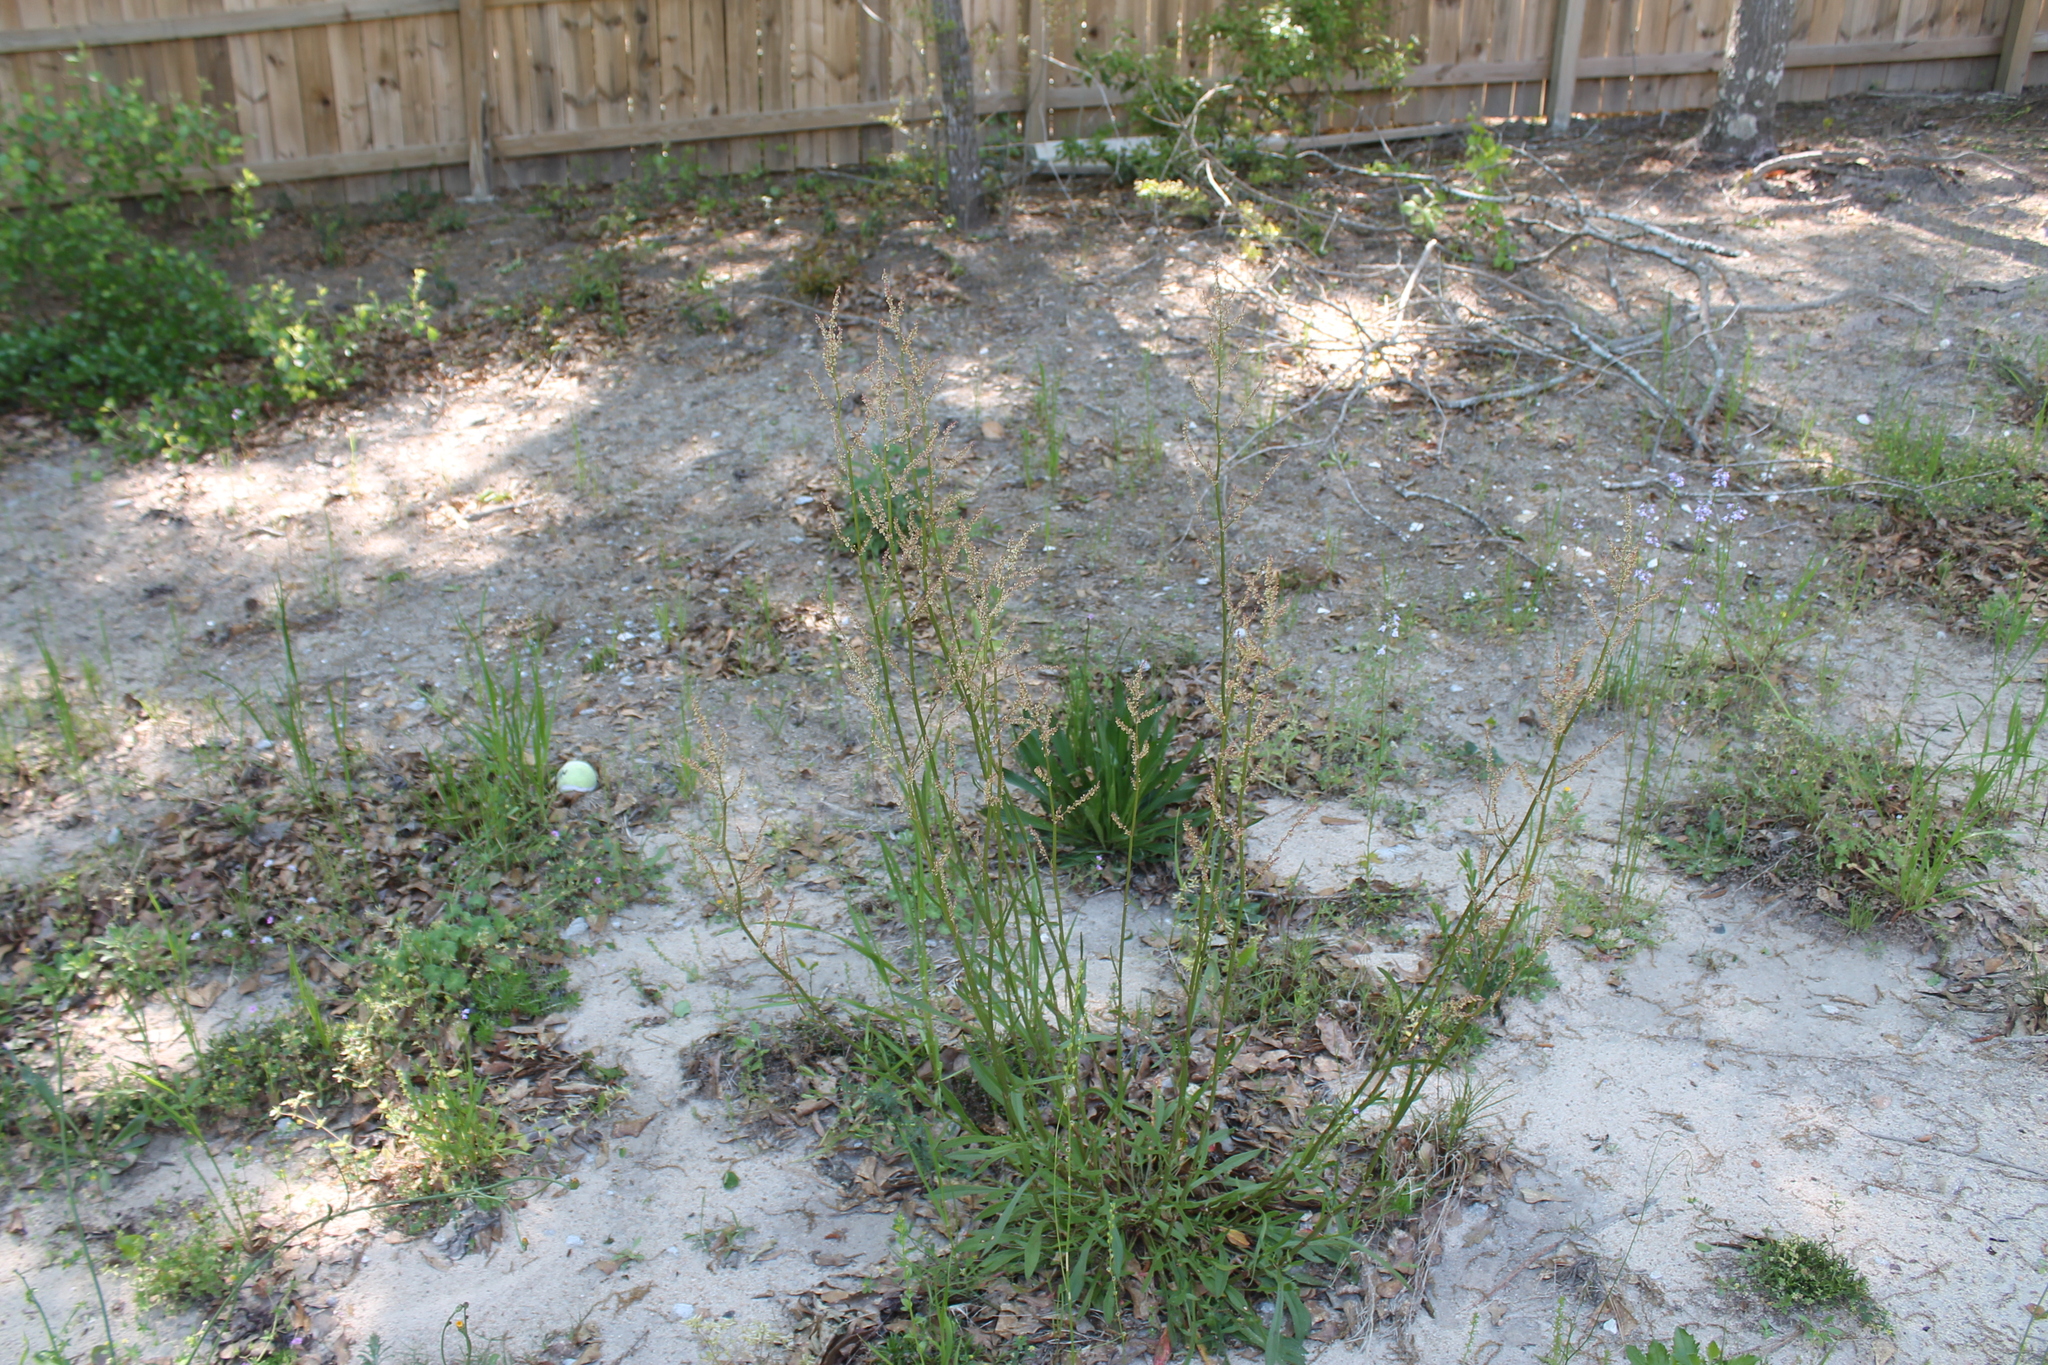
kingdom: Plantae
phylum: Tracheophyta
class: Magnoliopsida
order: Caryophyllales
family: Polygonaceae
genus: Rumex
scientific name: Rumex hastatulus
